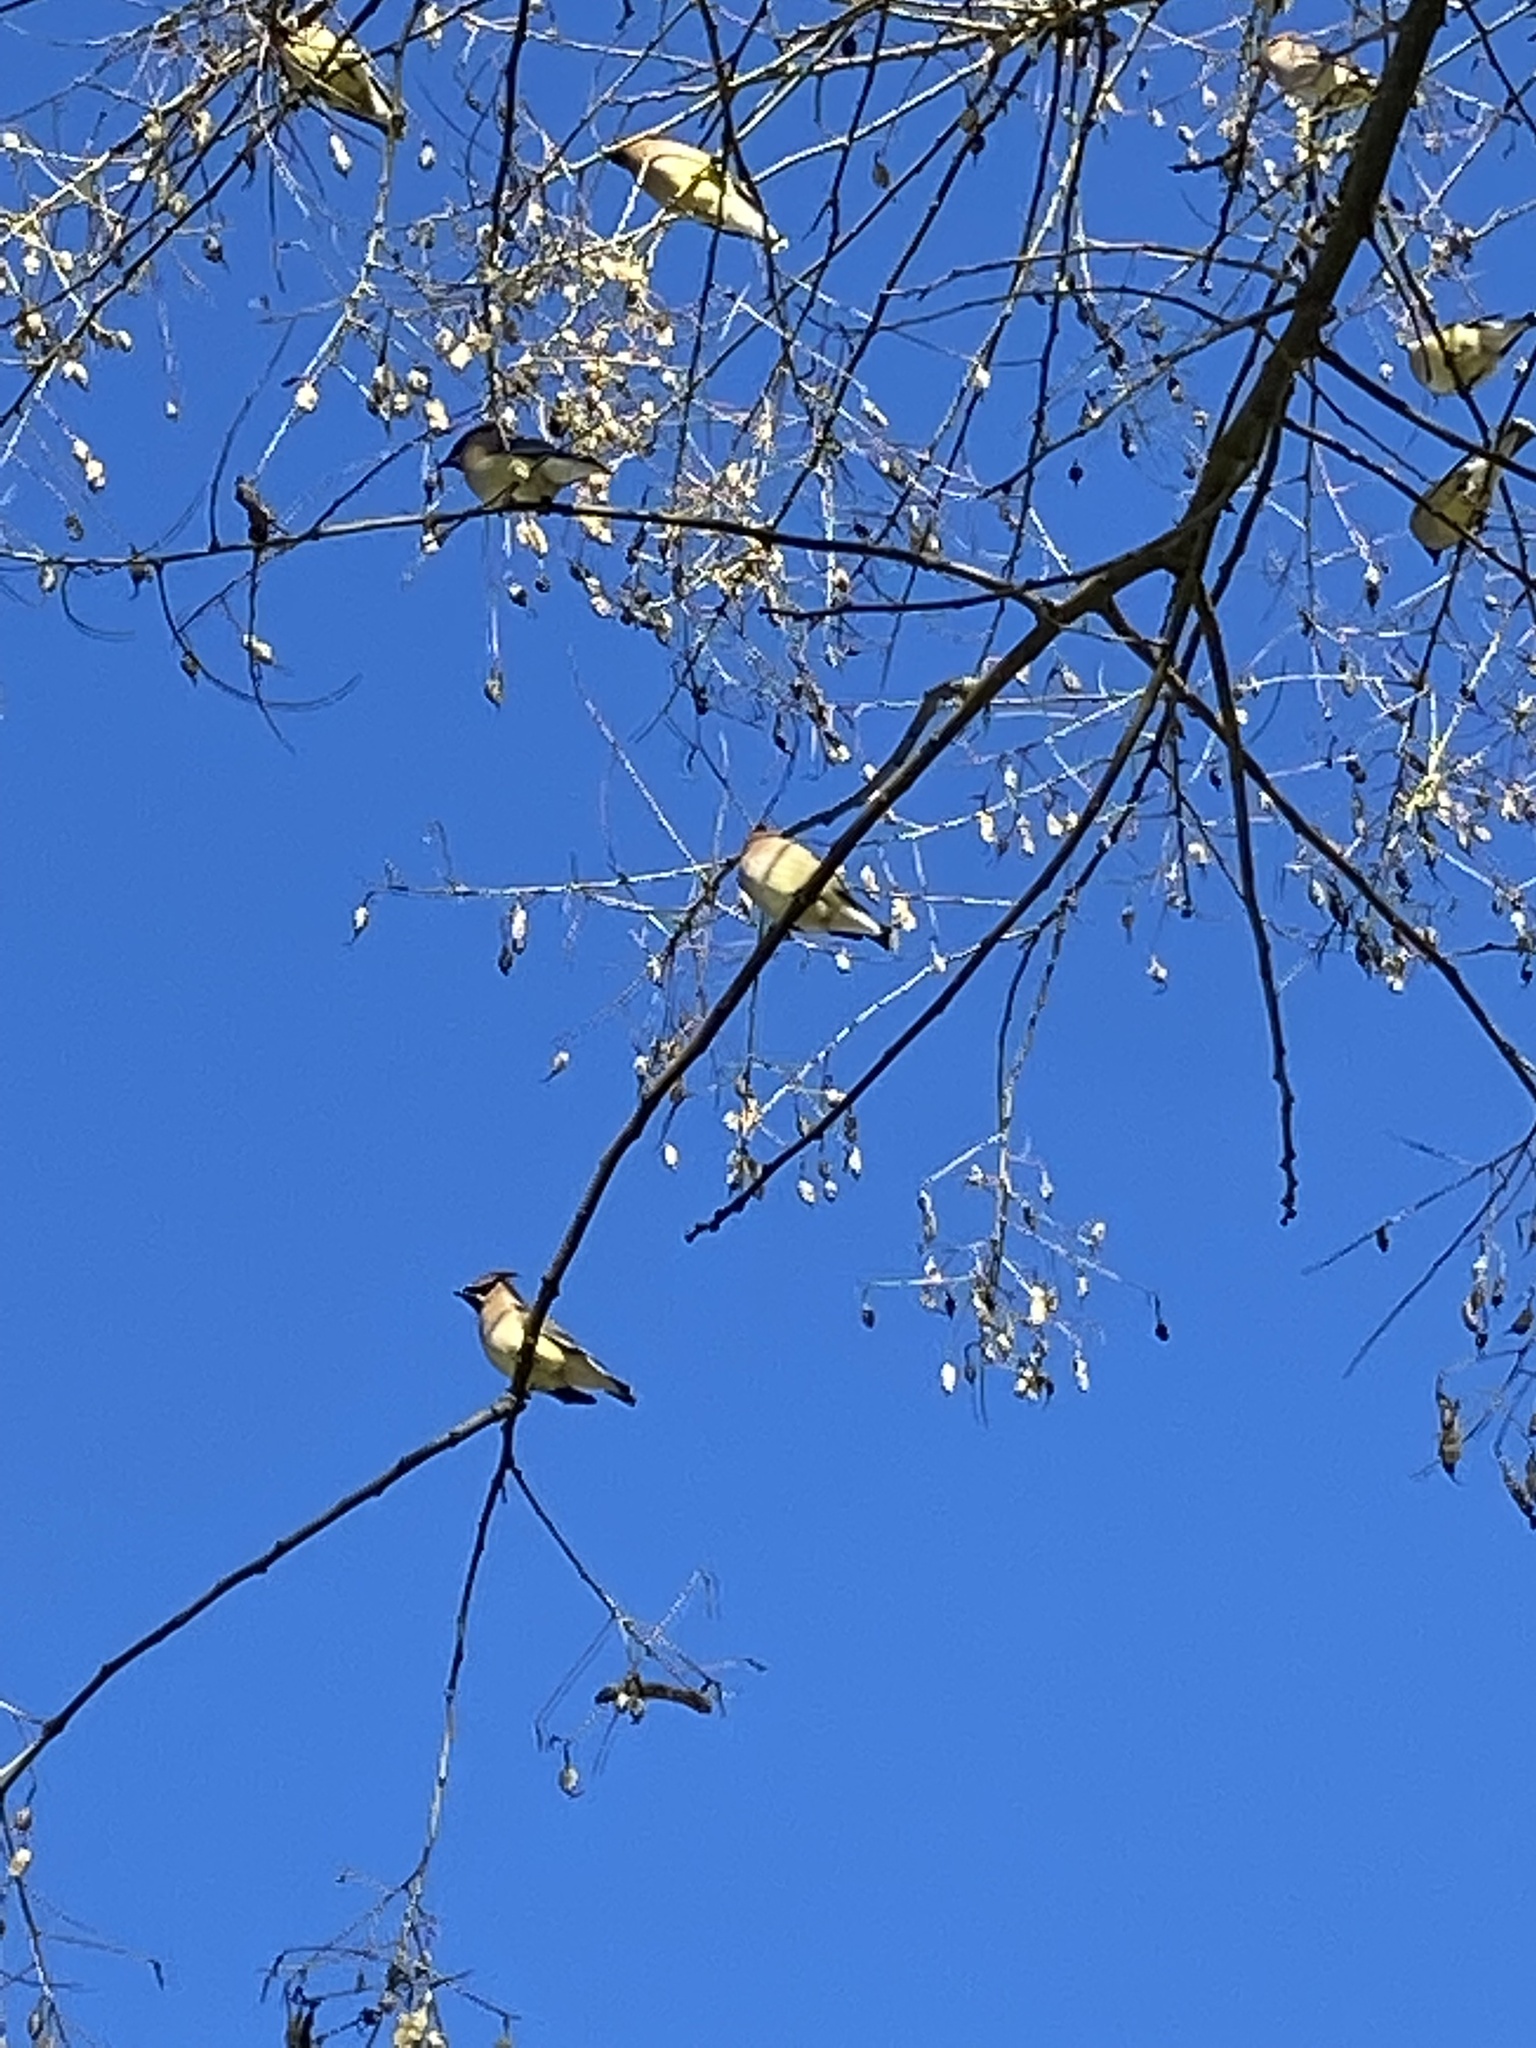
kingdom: Animalia
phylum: Chordata
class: Aves
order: Passeriformes
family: Bombycillidae
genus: Bombycilla
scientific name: Bombycilla cedrorum
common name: Cedar waxwing
